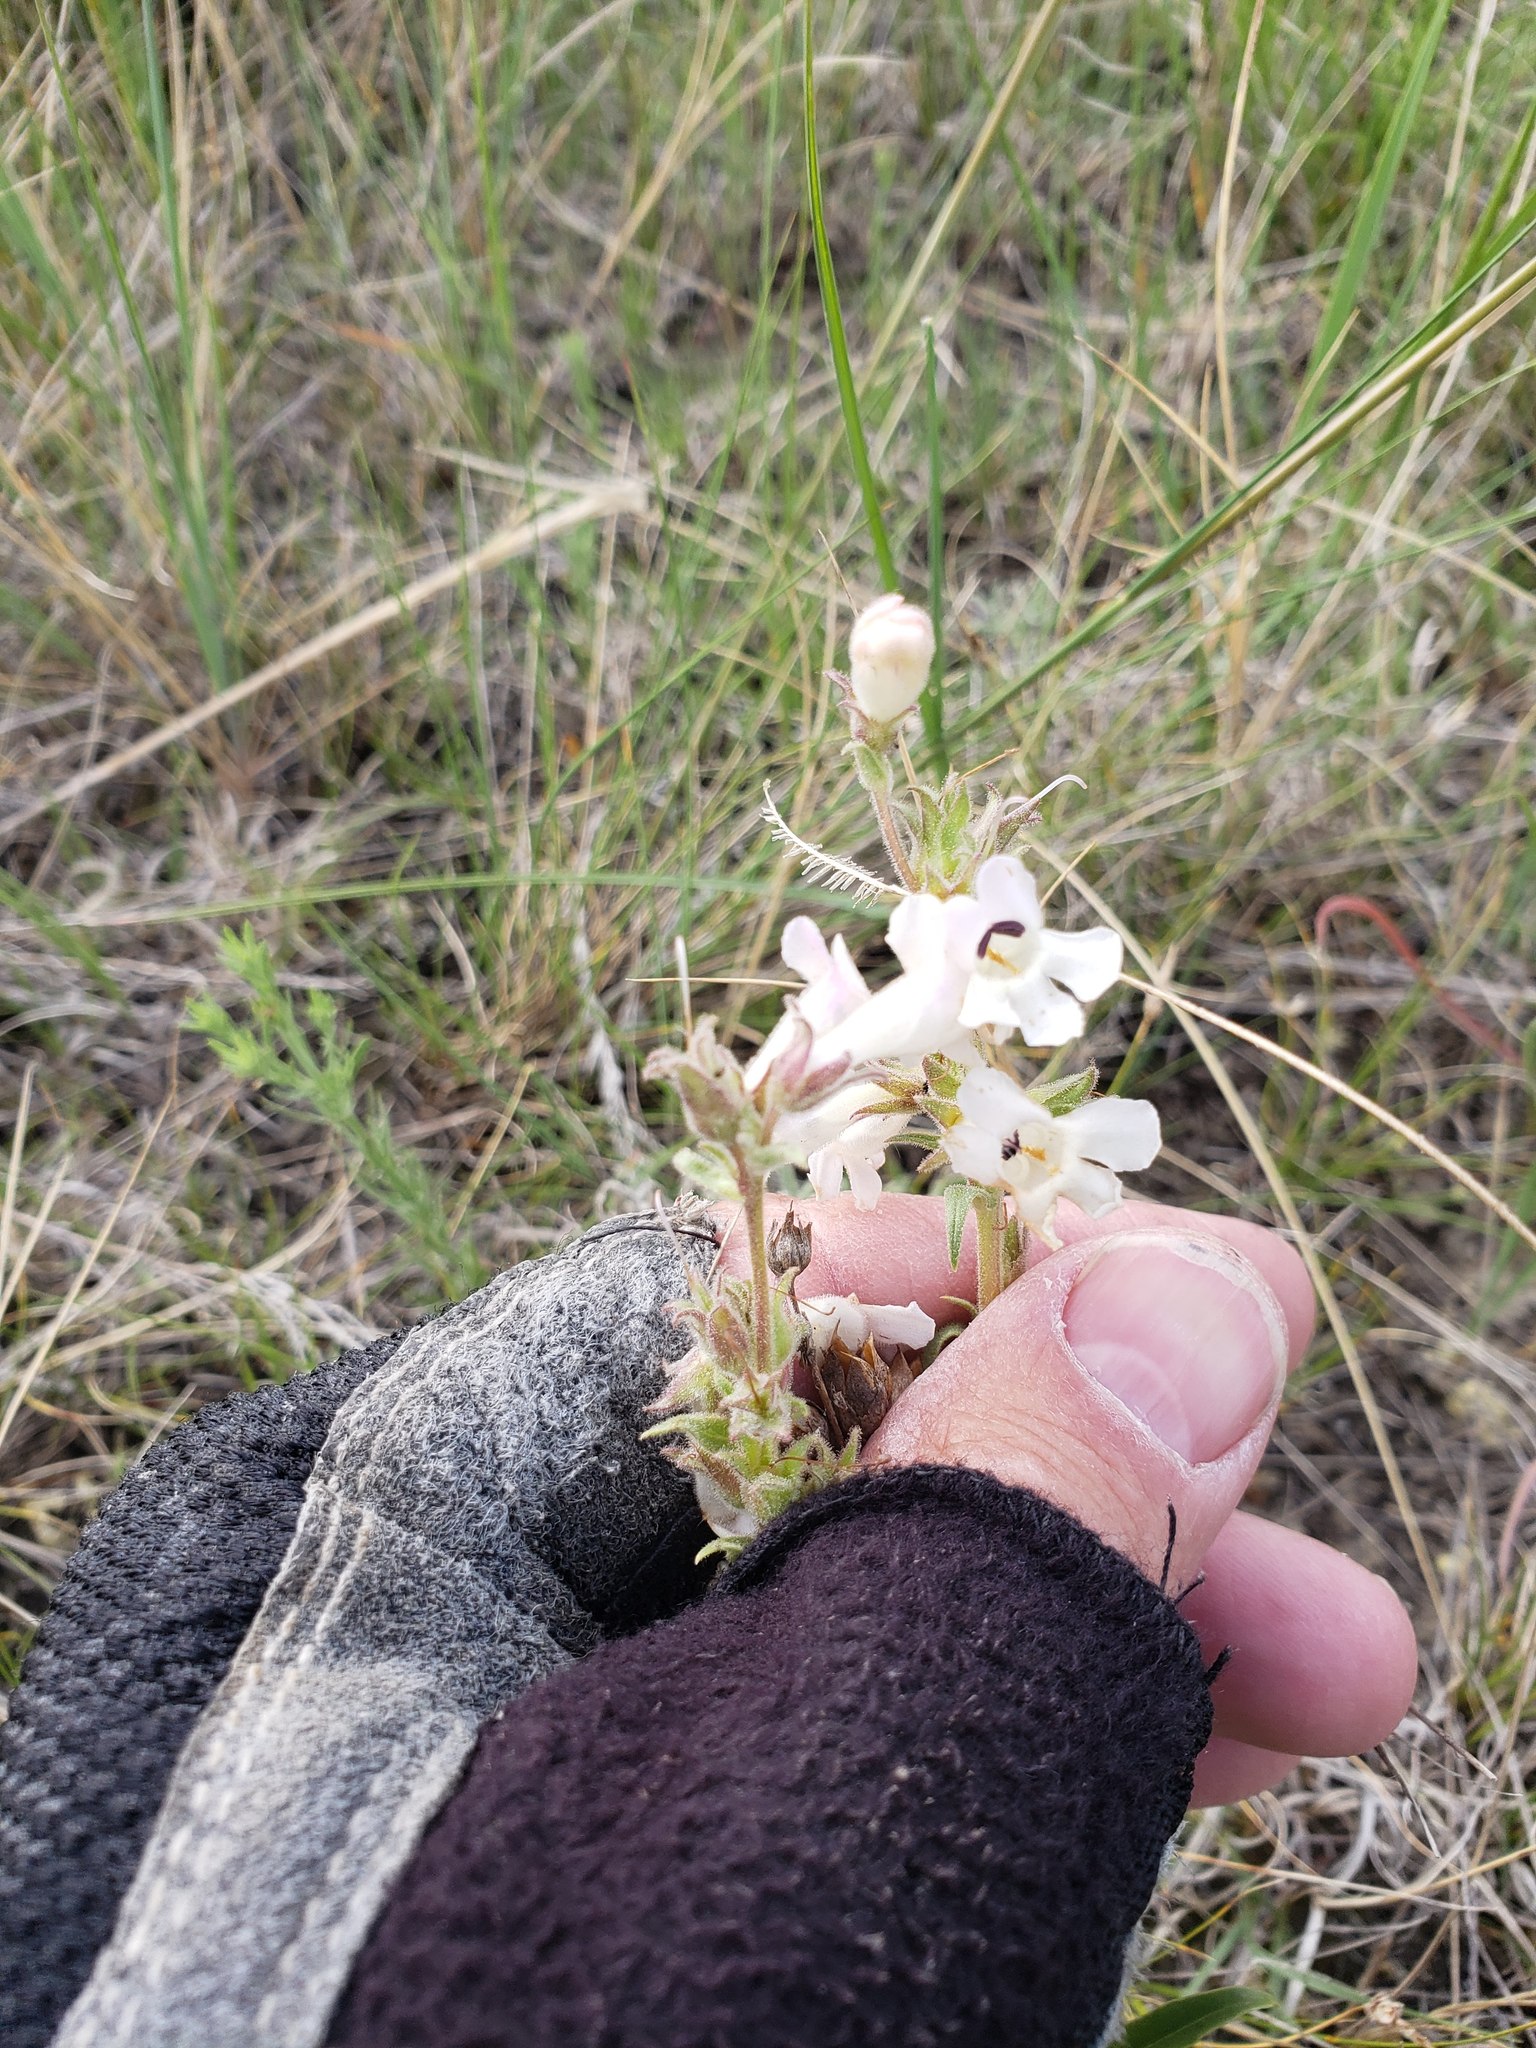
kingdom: Plantae
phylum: Tracheophyta
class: Magnoliopsida
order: Lamiales
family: Plantaginaceae
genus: Penstemon
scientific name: Penstemon albidus
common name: White beardtongue
